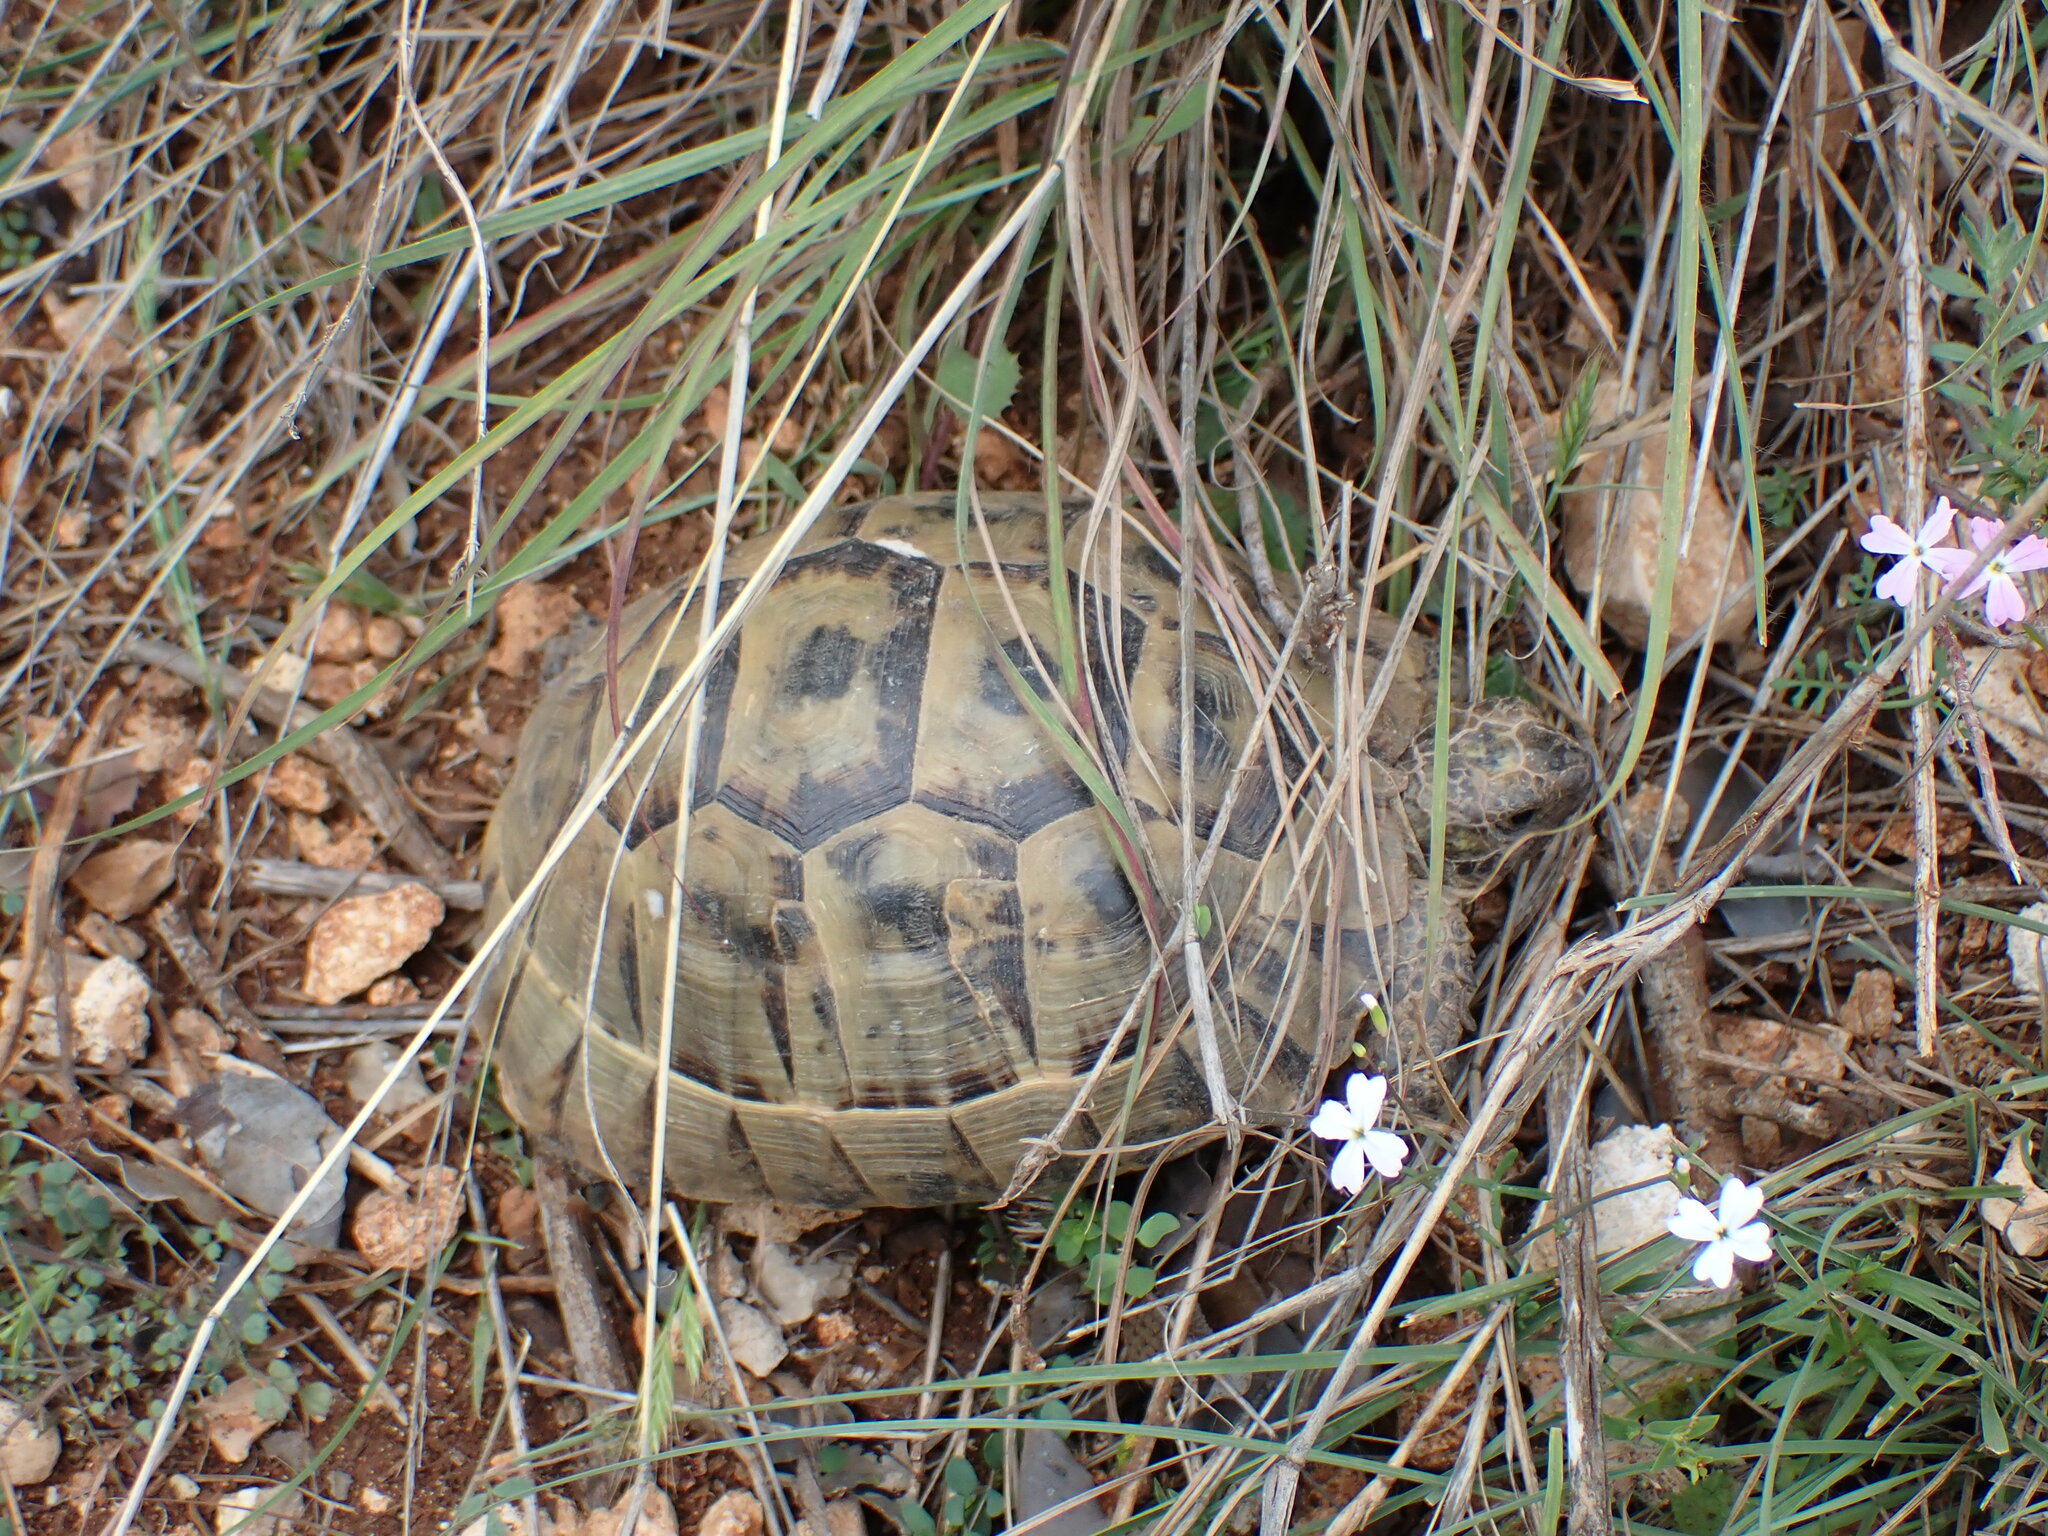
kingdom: Animalia
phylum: Chordata
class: Testudines
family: Testudinidae
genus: Testudo
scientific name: Testudo graeca
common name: Common tortoise
